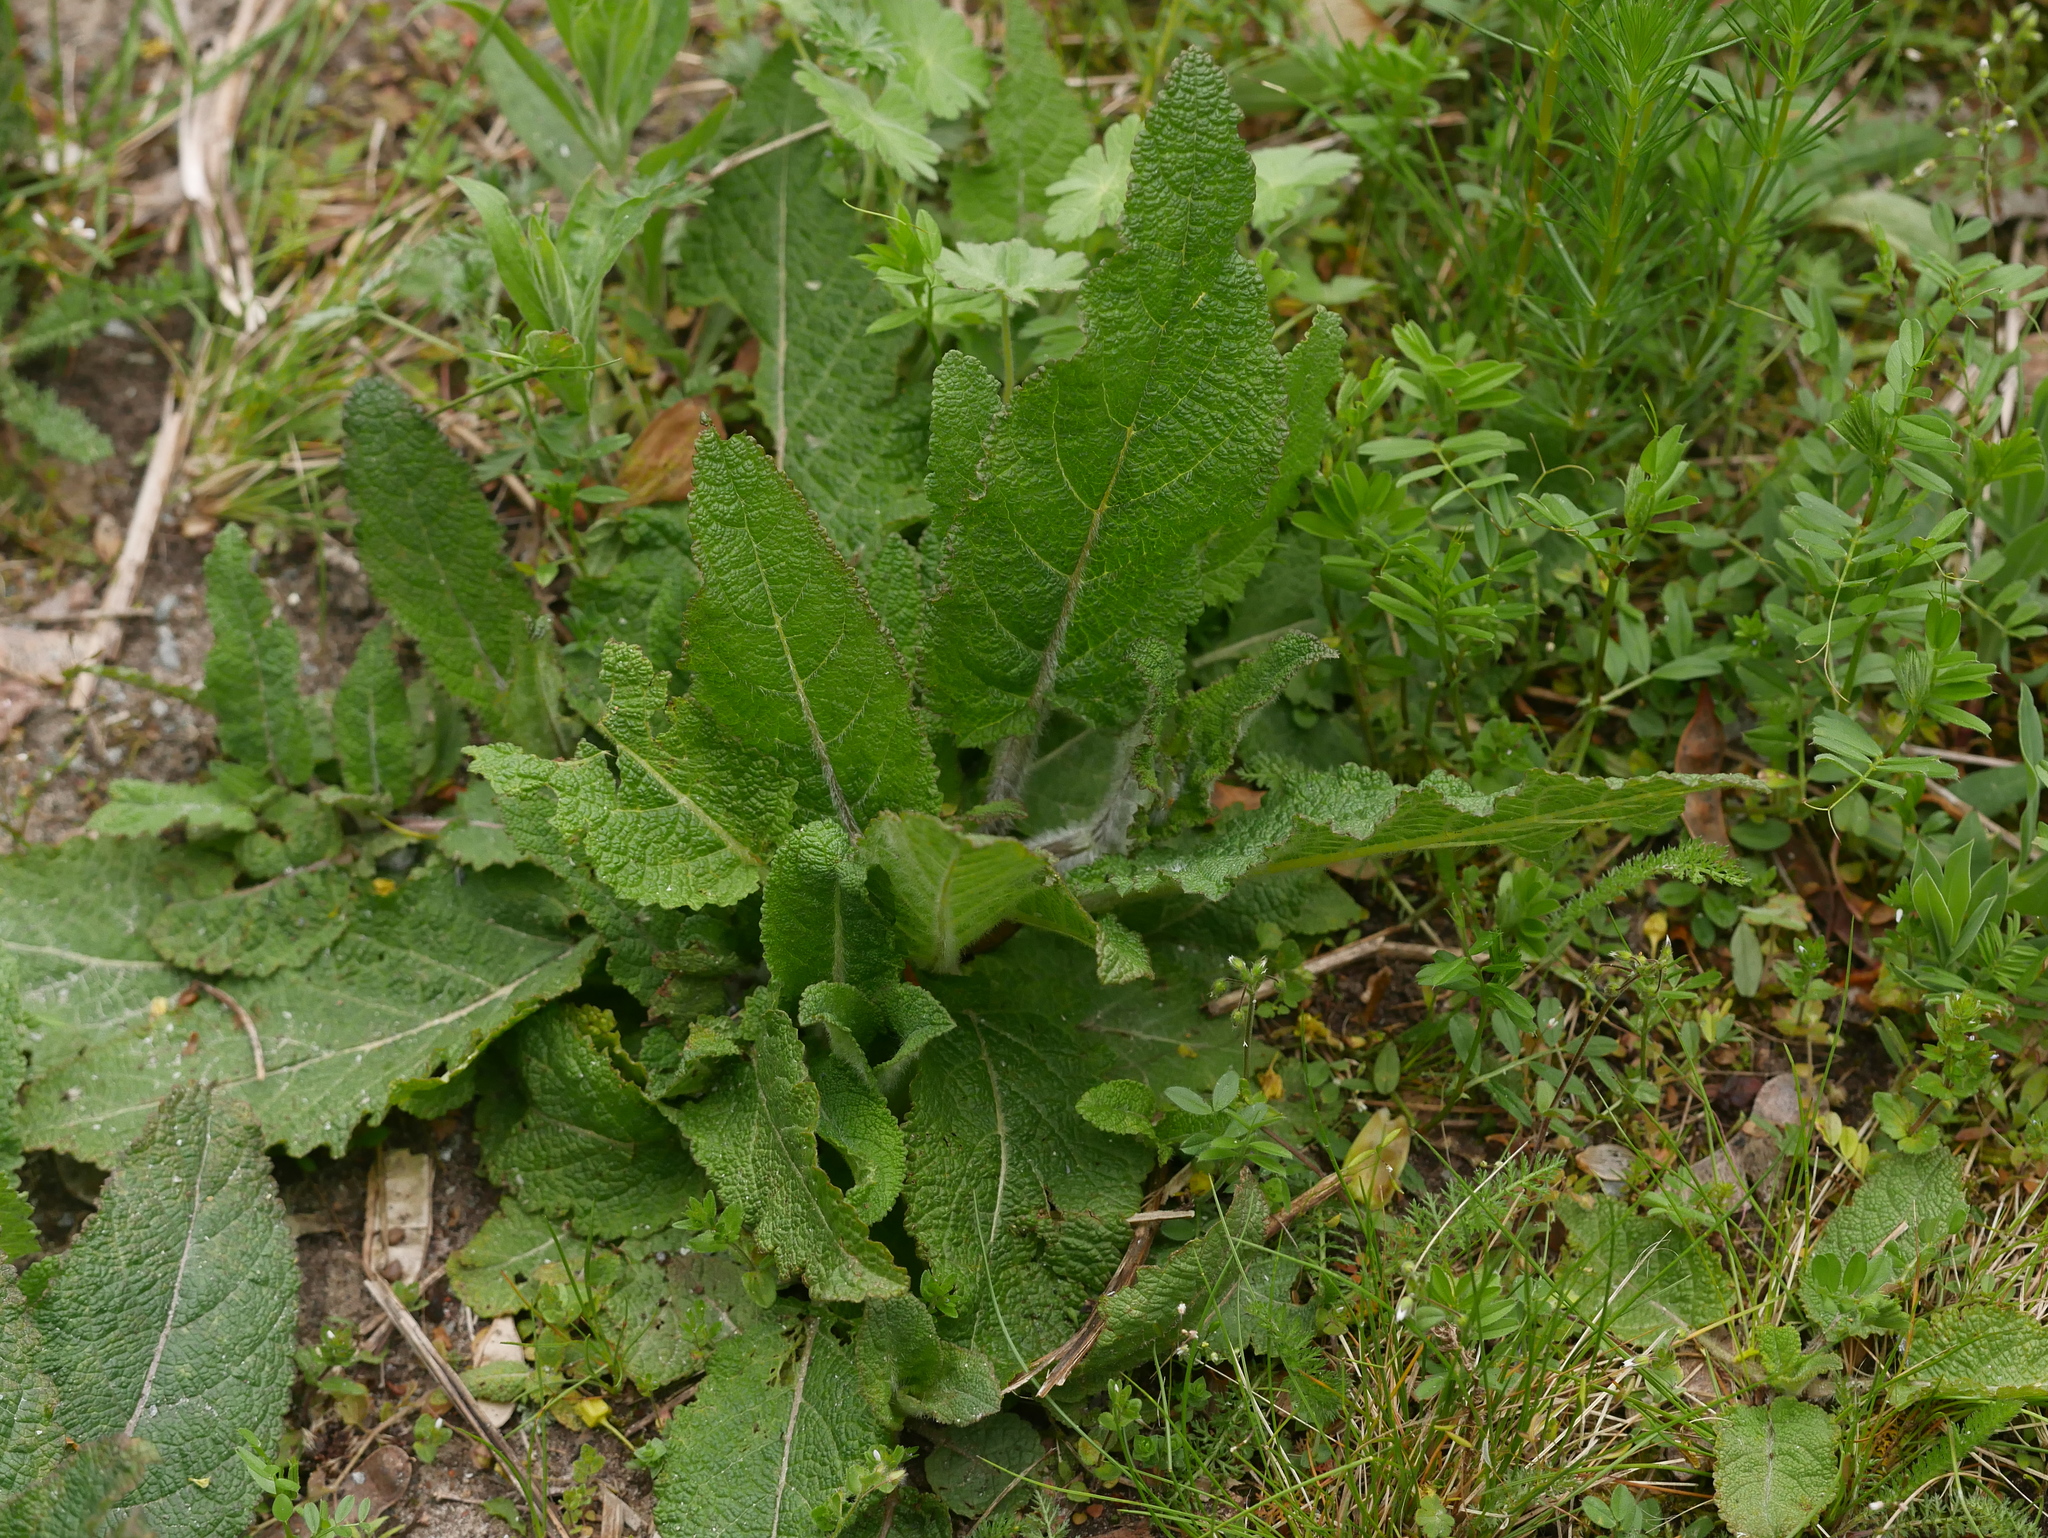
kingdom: Plantae
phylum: Tracheophyta
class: Magnoliopsida
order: Lamiales
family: Lamiaceae
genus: Salvia
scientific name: Salvia pratensis
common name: Meadow sage
